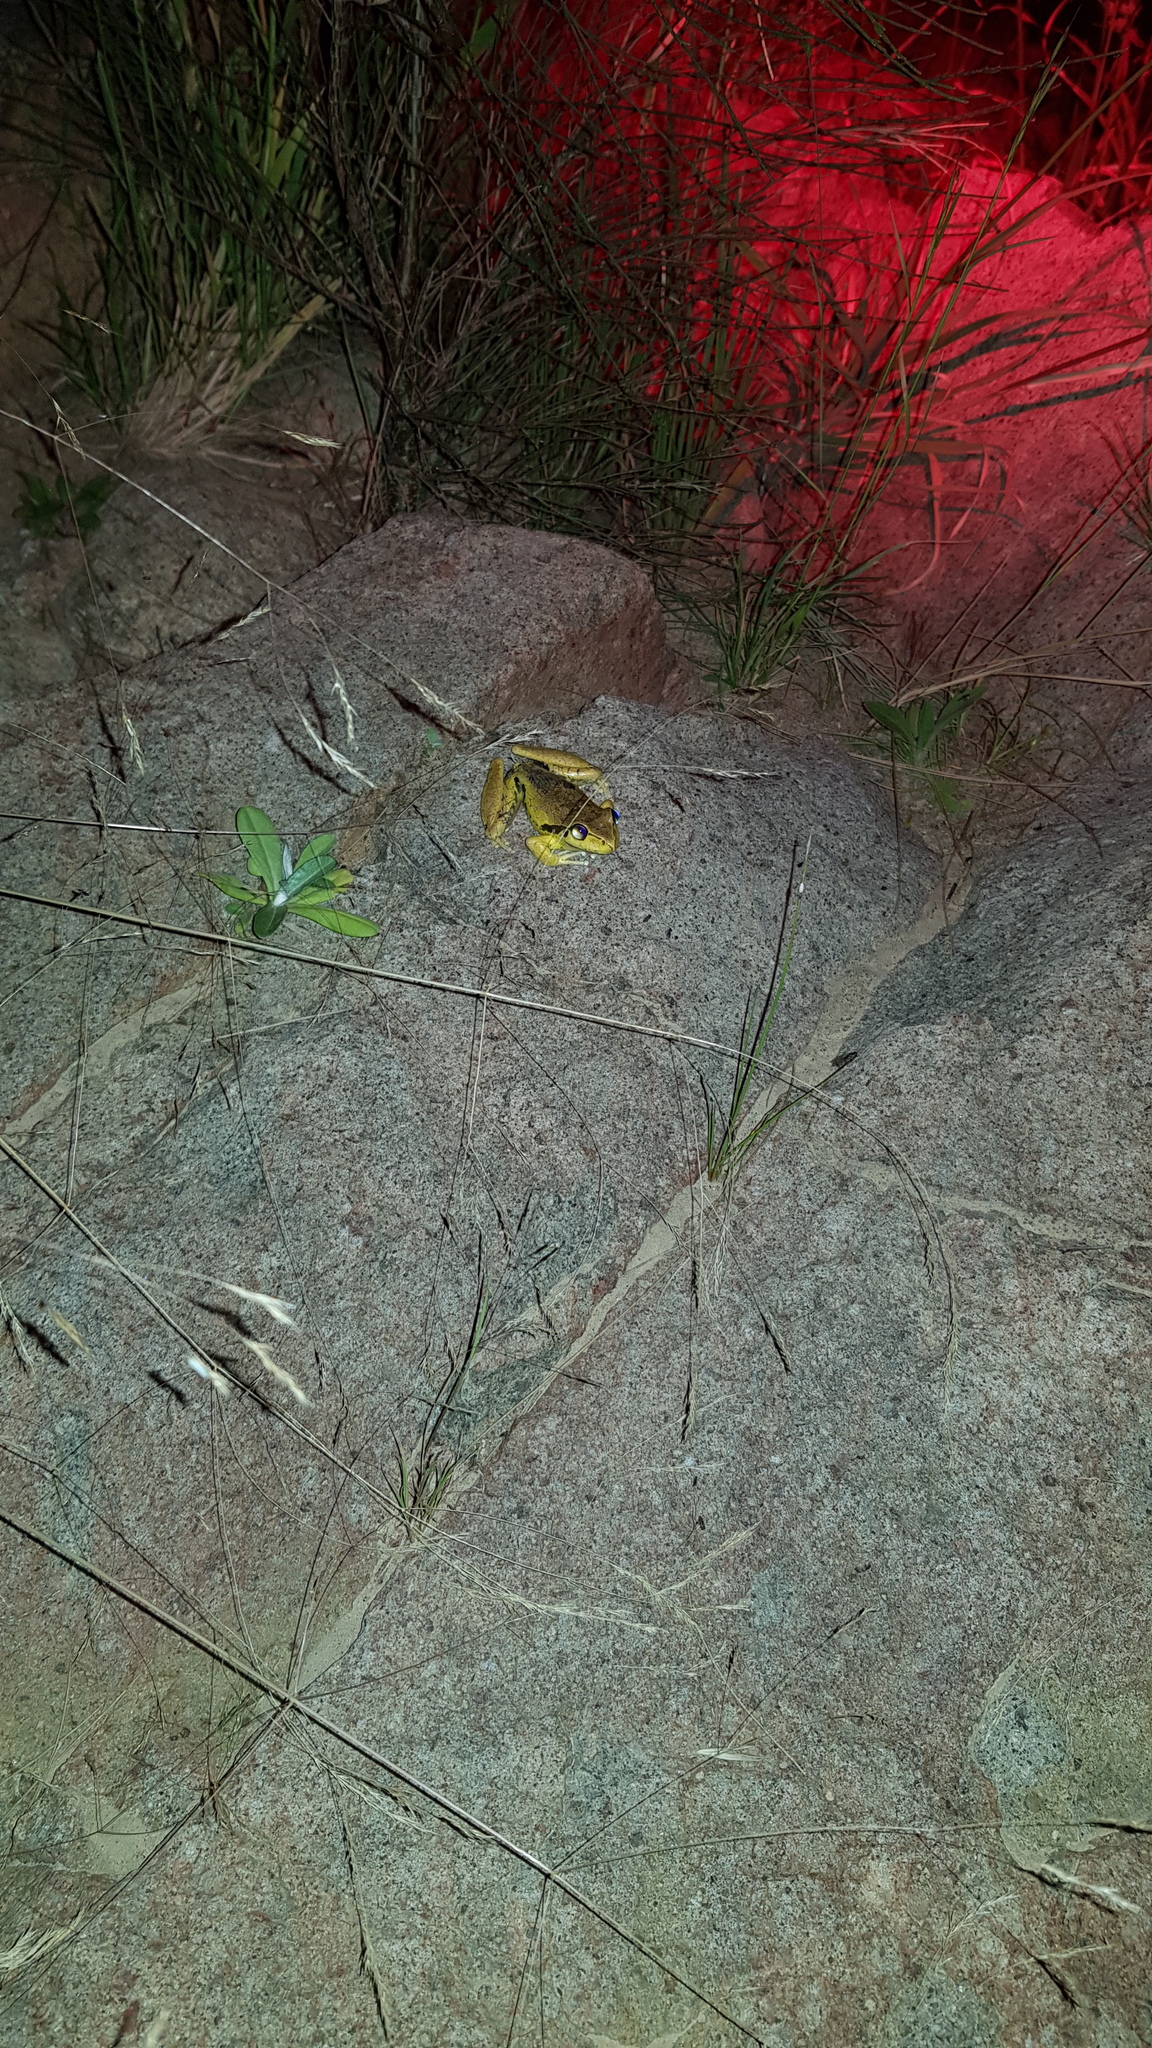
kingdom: Animalia
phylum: Chordata
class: Amphibia
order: Anura
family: Pelodryadidae
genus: Ranoidea
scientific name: Ranoidea lesueurii
